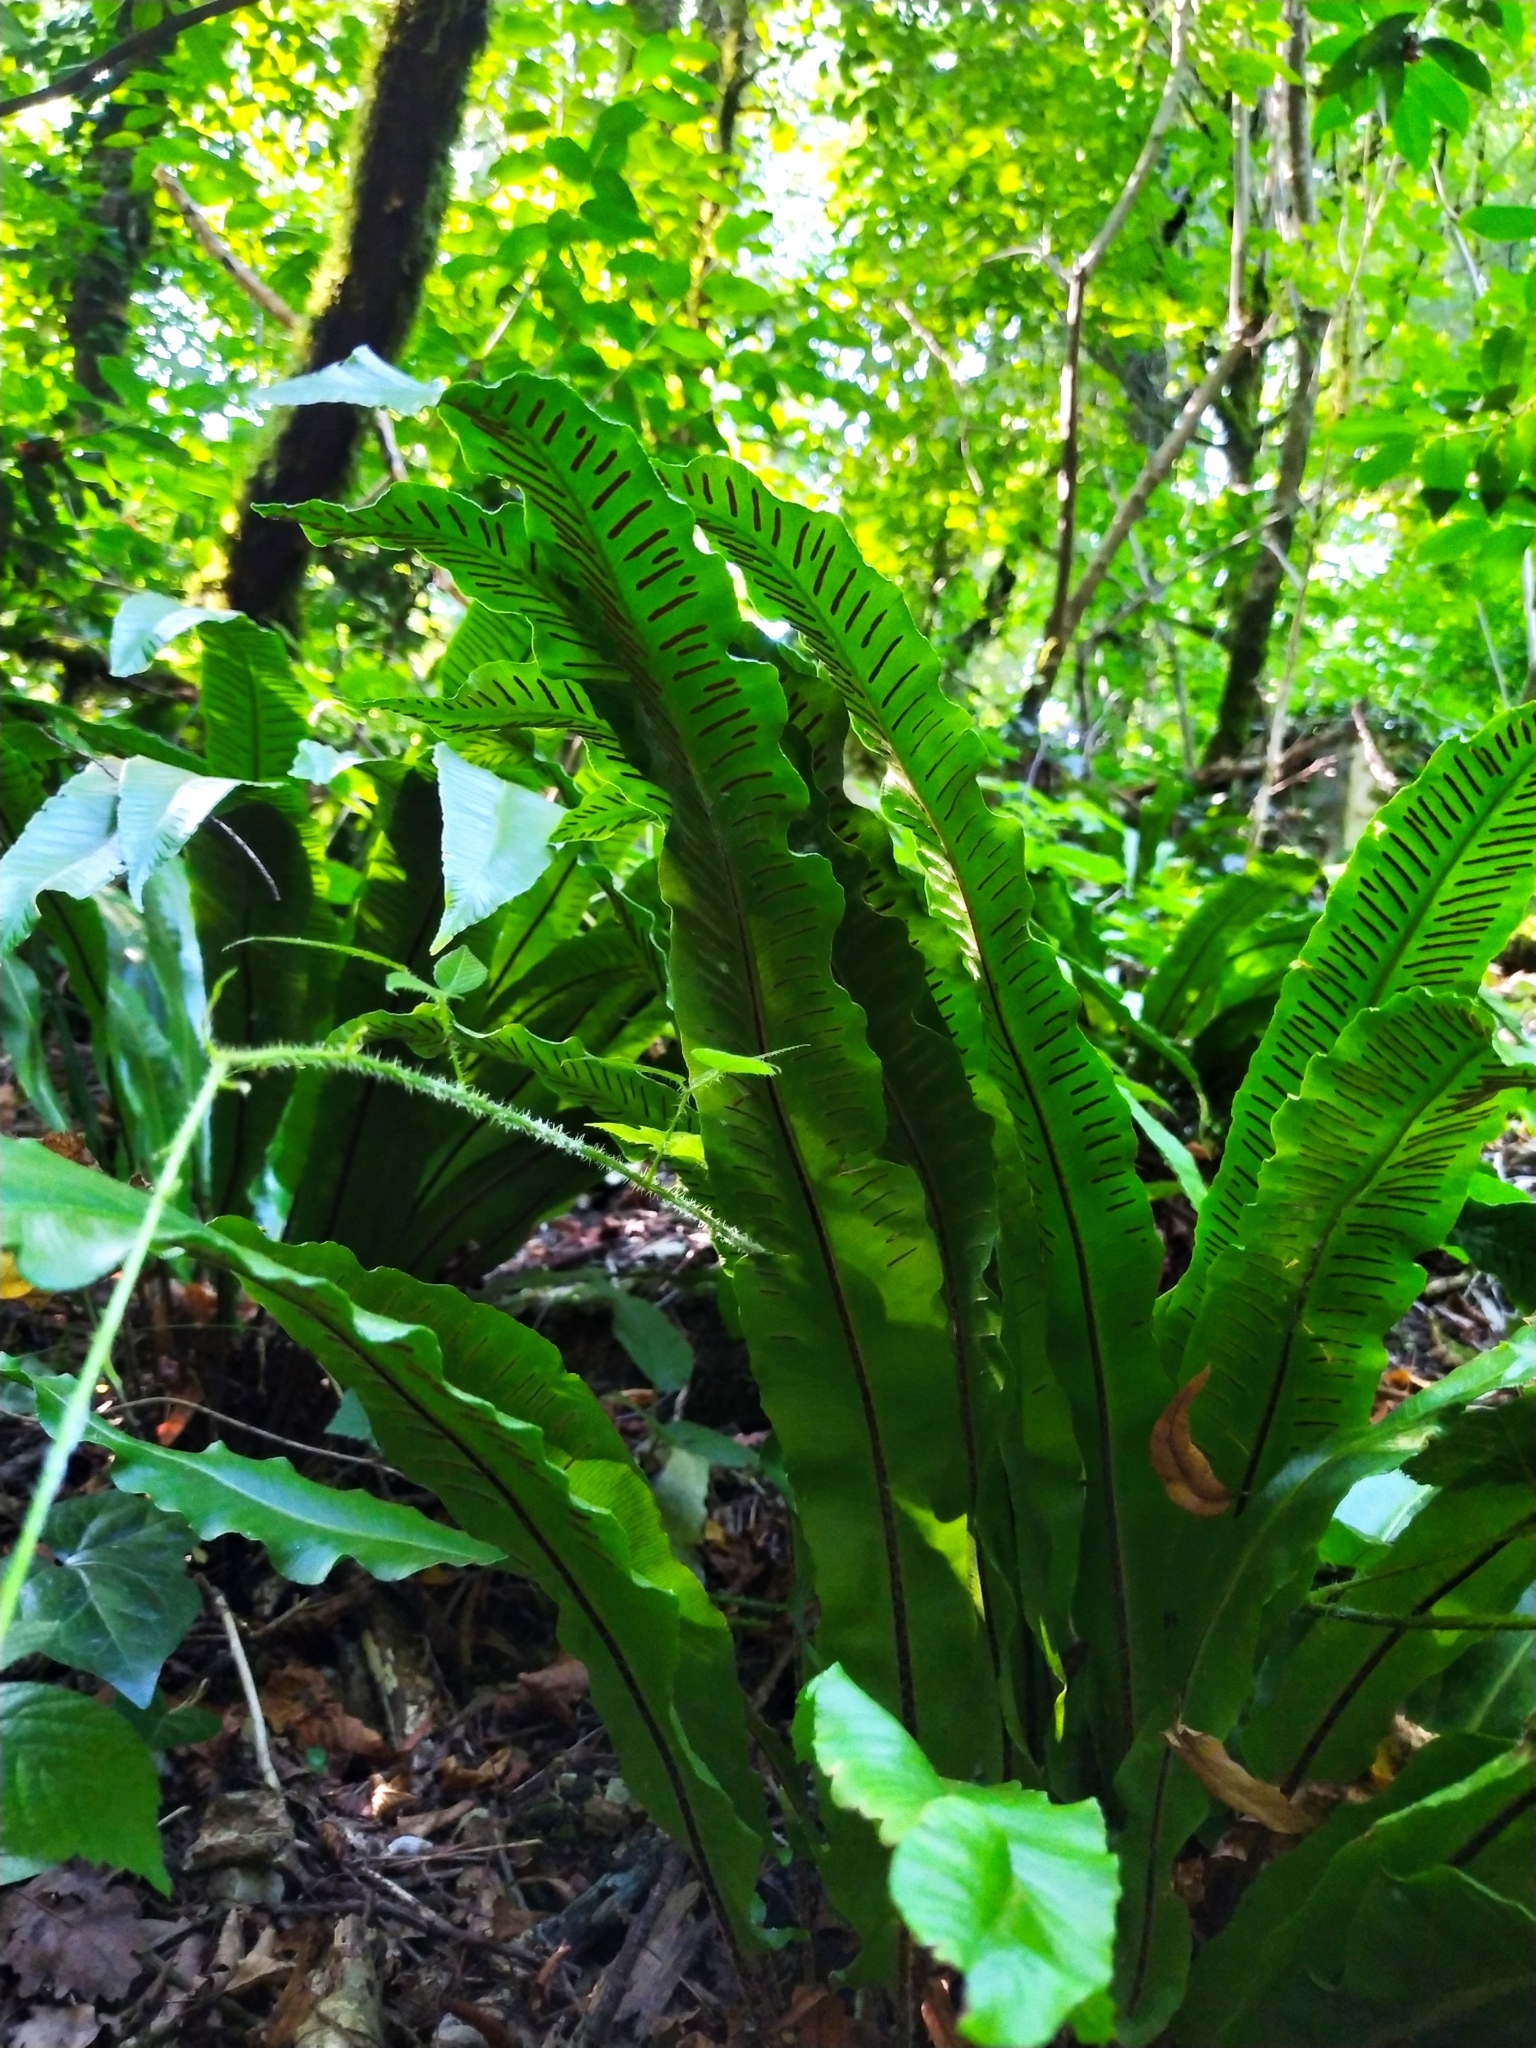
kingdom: Plantae
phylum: Tracheophyta
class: Polypodiopsida
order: Polypodiales
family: Aspleniaceae
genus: Asplenium
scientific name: Asplenium scolopendrium
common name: Hart's-tongue fern
